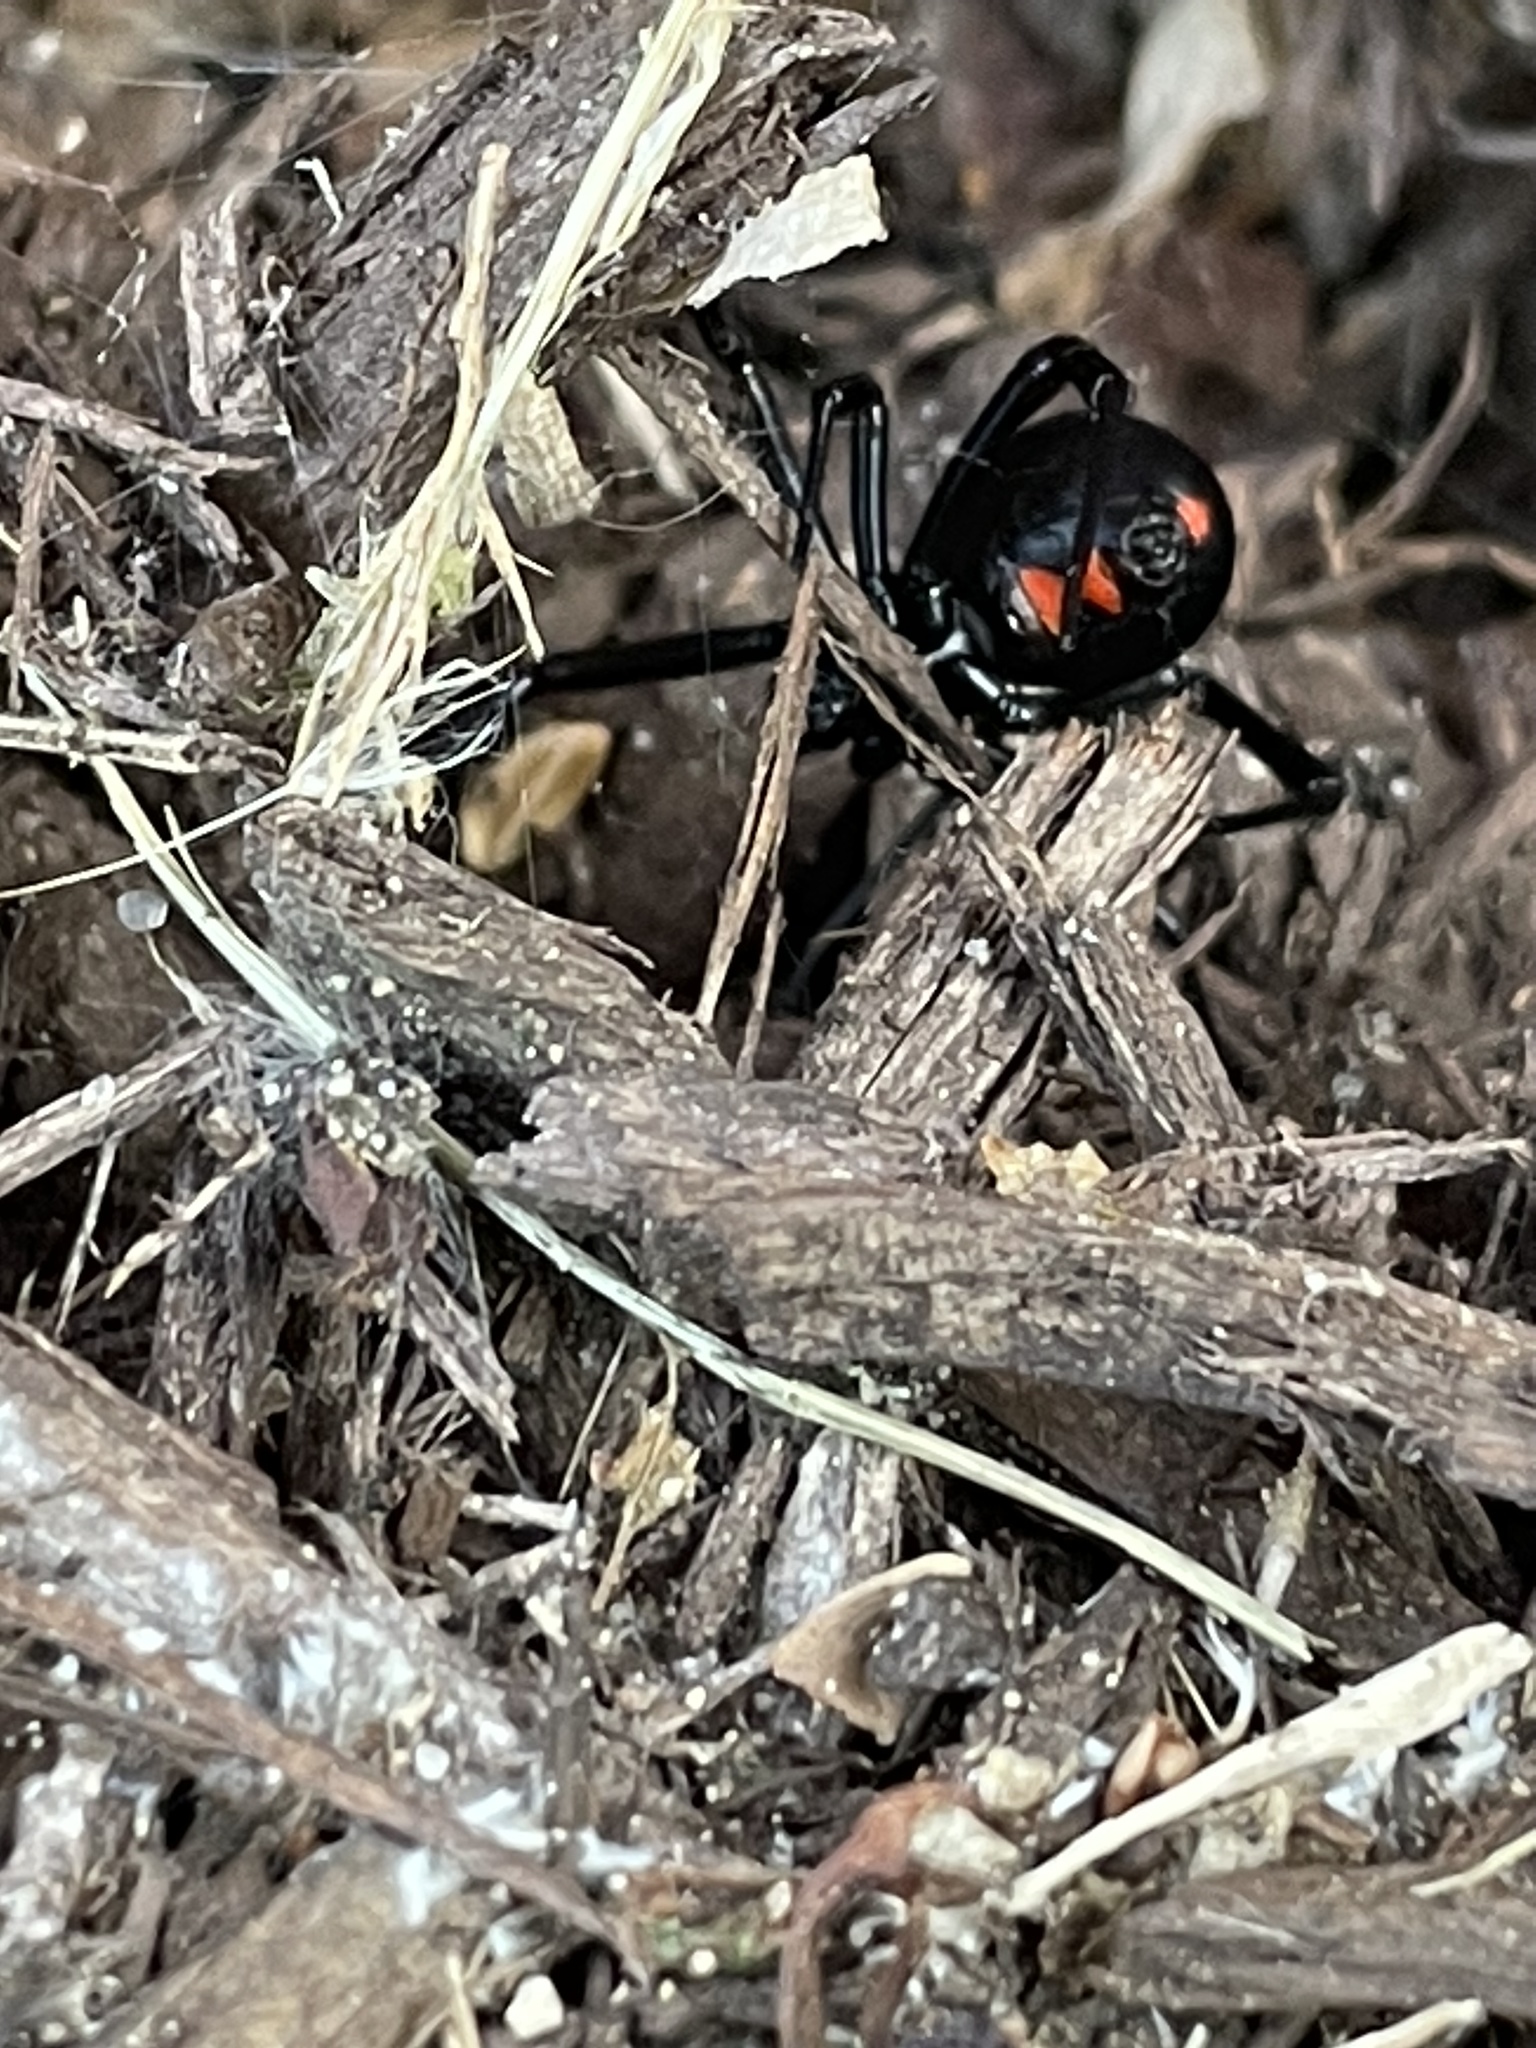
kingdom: Animalia
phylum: Arthropoda
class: Arachnida
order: Araneae
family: Theridiidae
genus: Latrodectus
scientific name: Latrodectus mactans
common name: Cobweb spiders
